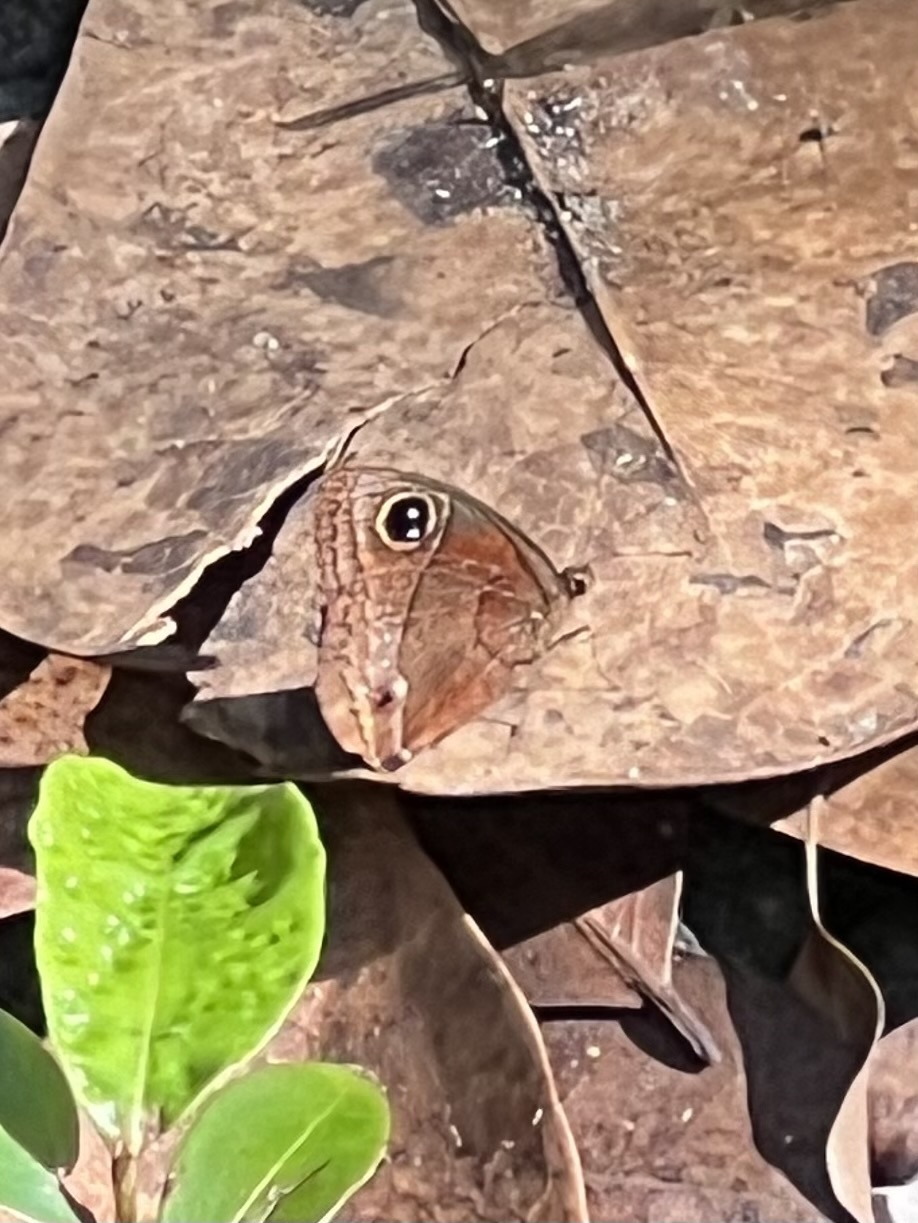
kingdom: Animalia
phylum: Arthropoda
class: Insecta
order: Lepidoptera
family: Nymphalidae
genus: Calisto
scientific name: Calisto nubila
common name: Puerto rican calisto
